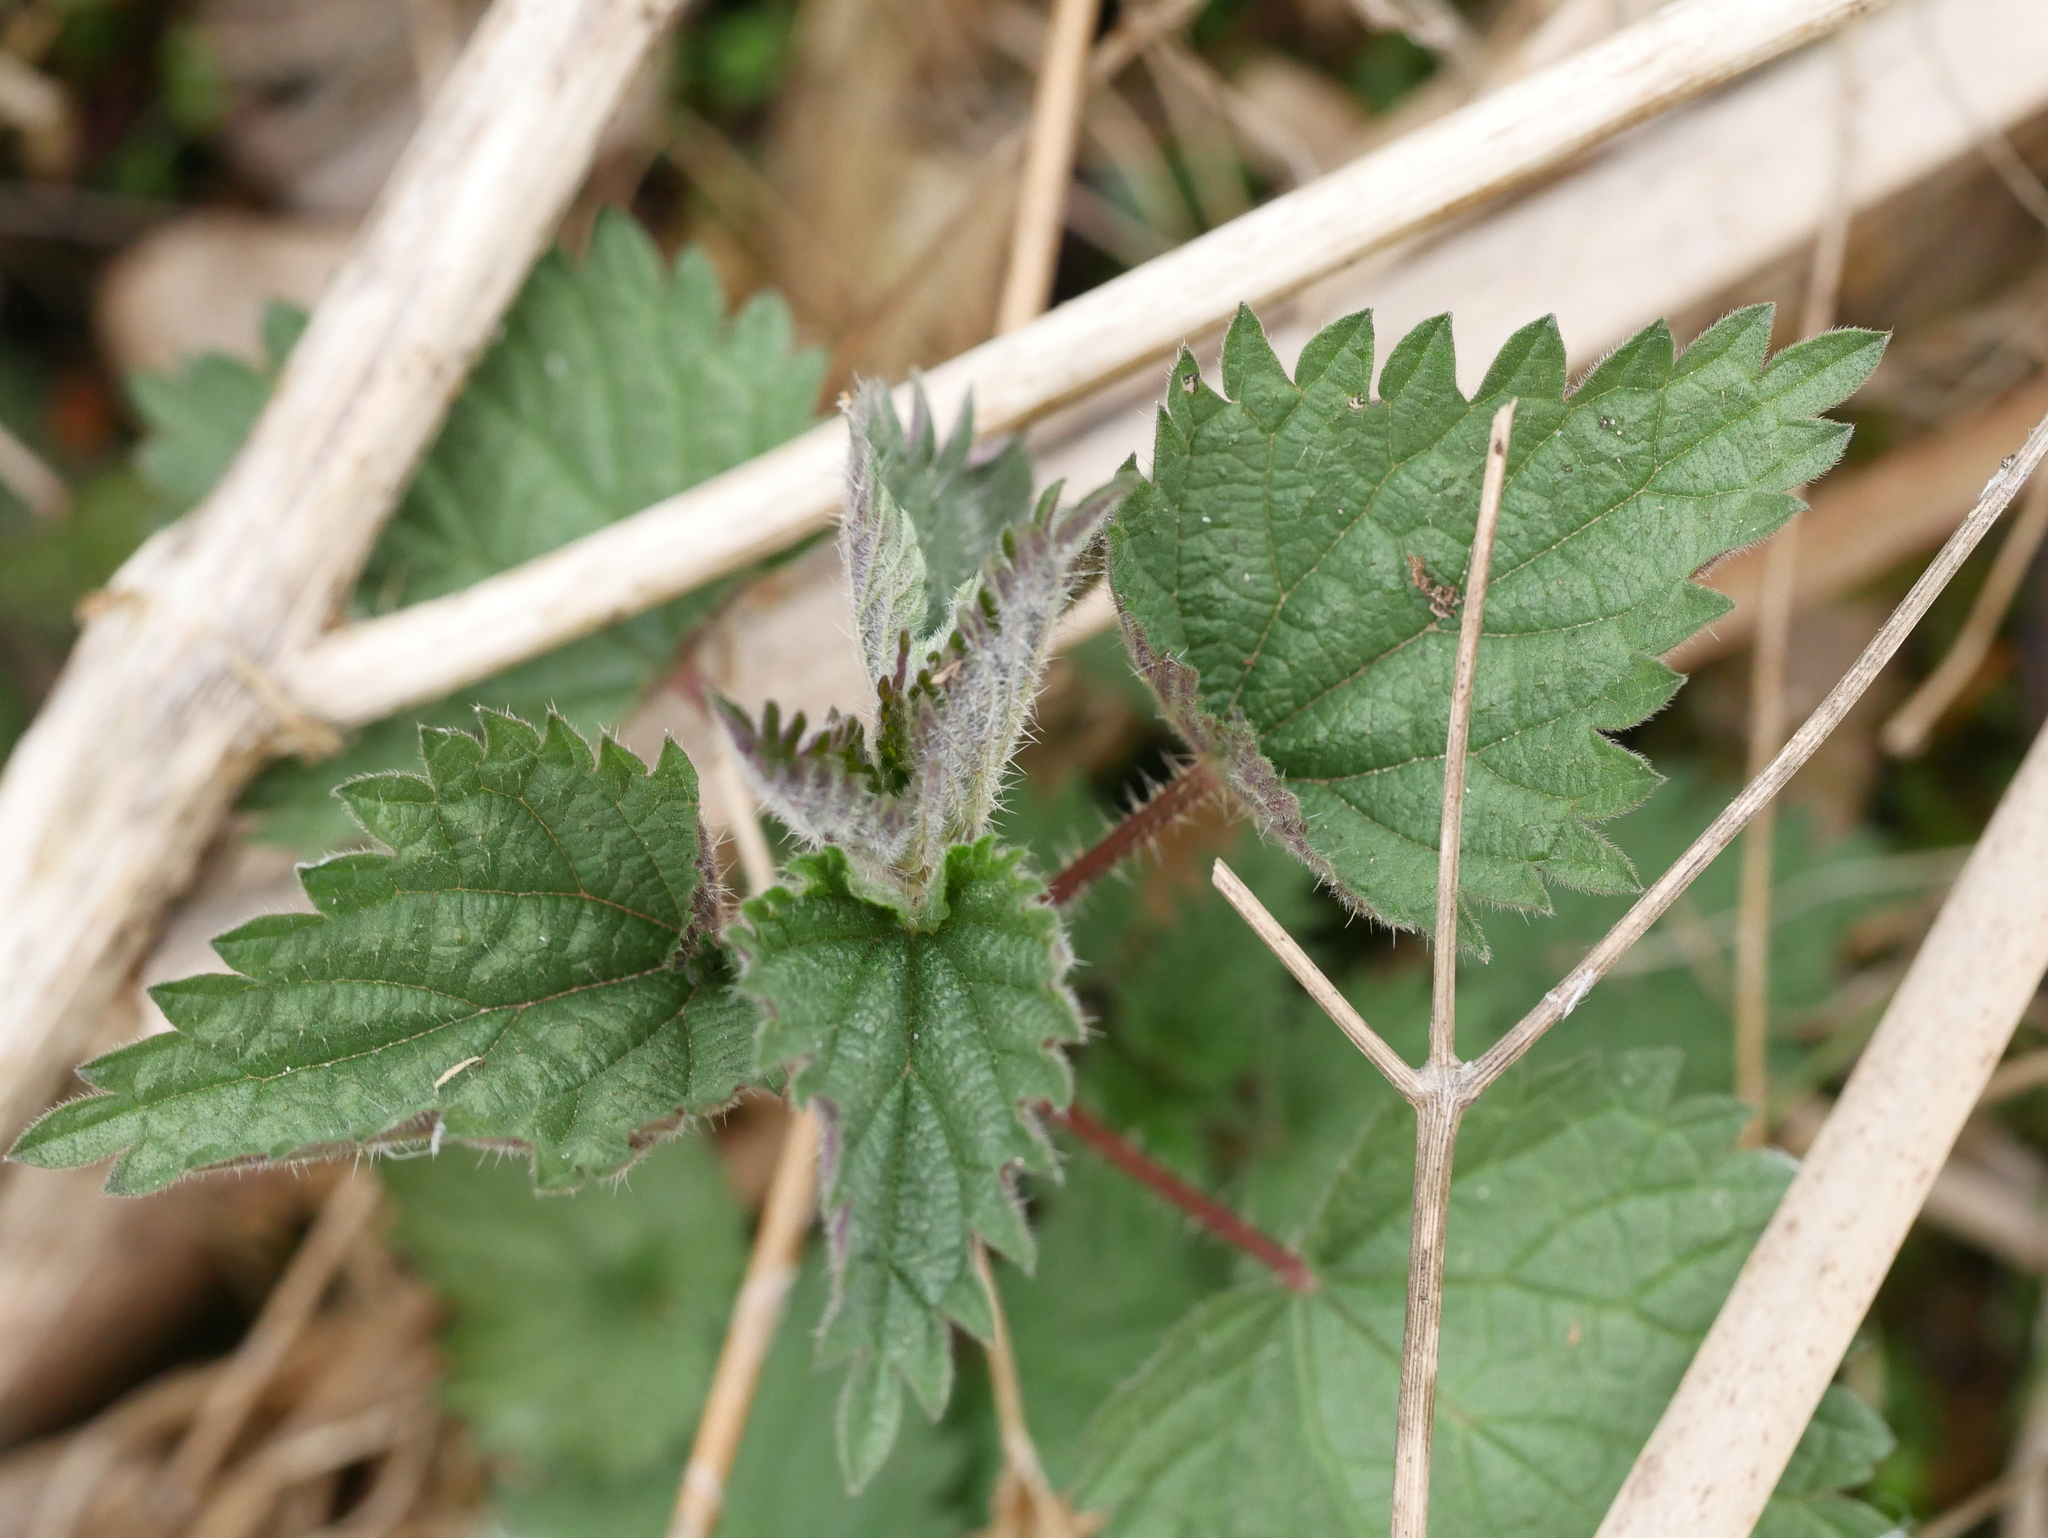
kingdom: Plantae
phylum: Tracheophyta
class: Magnoliopsida
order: Rosales
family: Urticaceae
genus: Urtica
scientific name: Urtica dioica
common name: Common nettle
